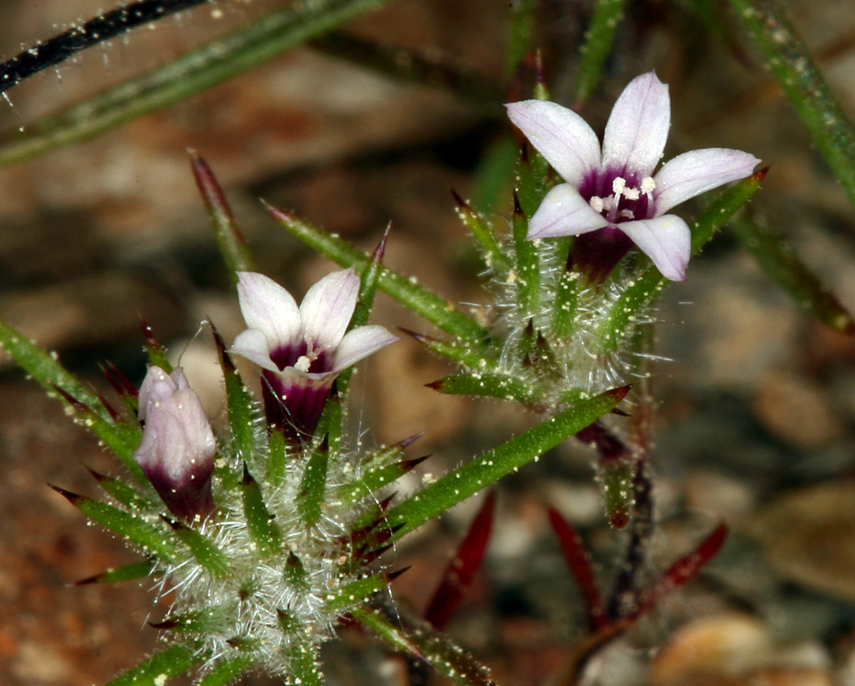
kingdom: Plantae
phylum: Tracheophyta
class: Magnoliopsida
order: Ericales
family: Polemoniaceae
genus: Navarretia
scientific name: Navarretia torreyella
